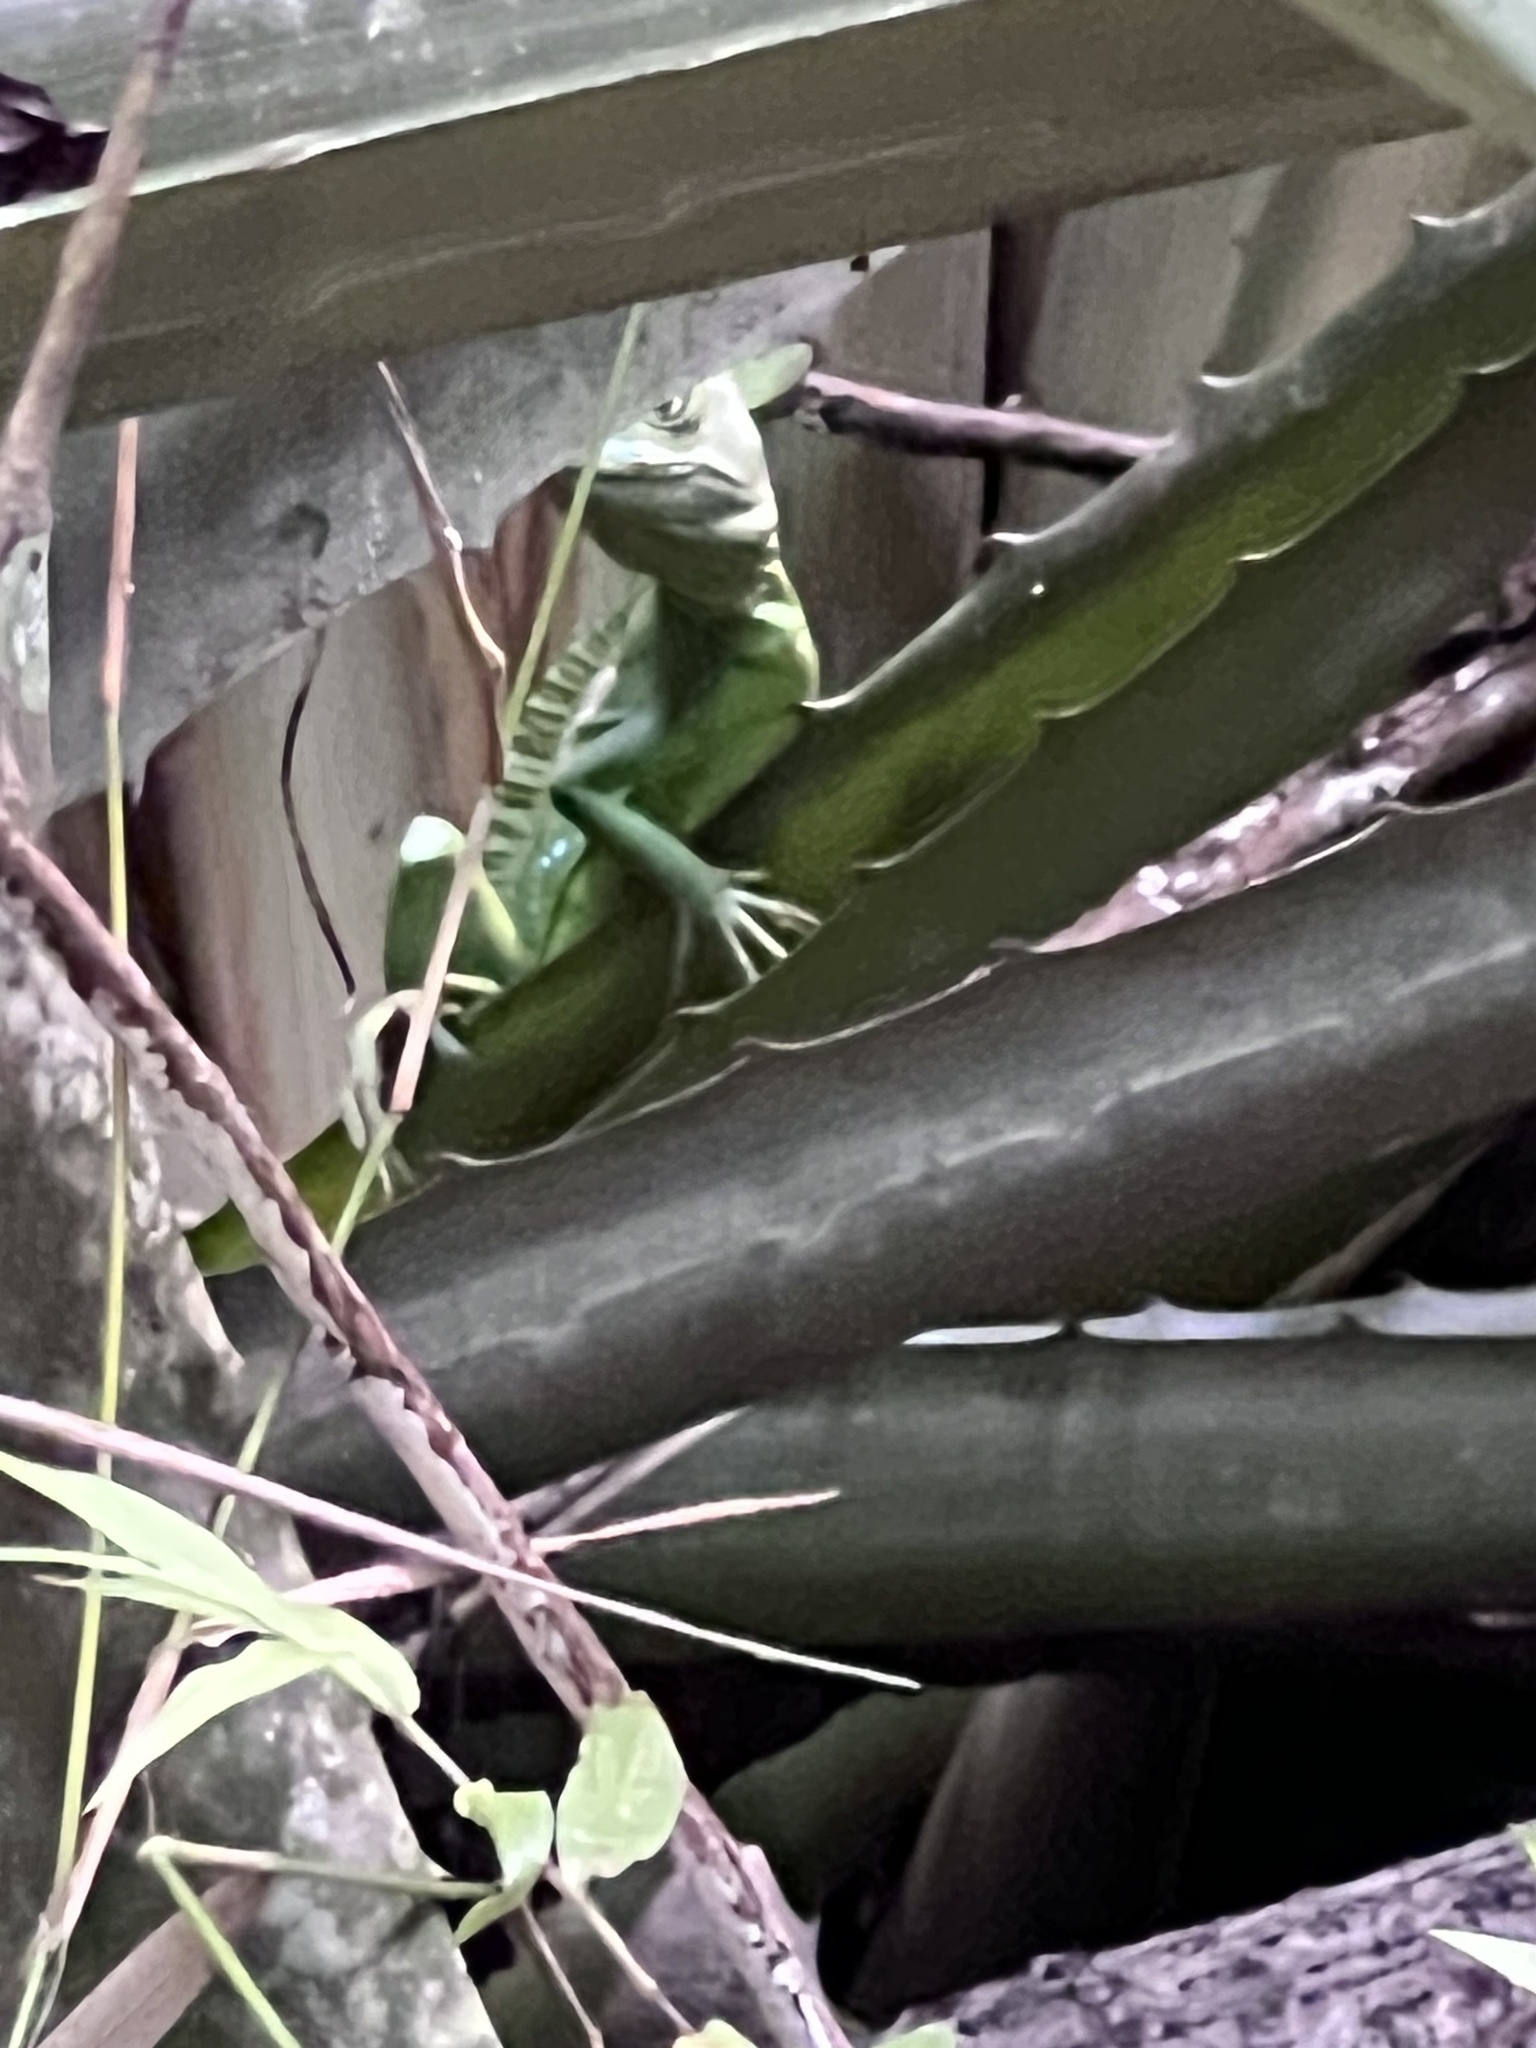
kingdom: Animalia
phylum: Chordata
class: Squamata
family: Corytophanidae
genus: Basiliscus
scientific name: Basiliscus plumifrons
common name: Green basilisk
